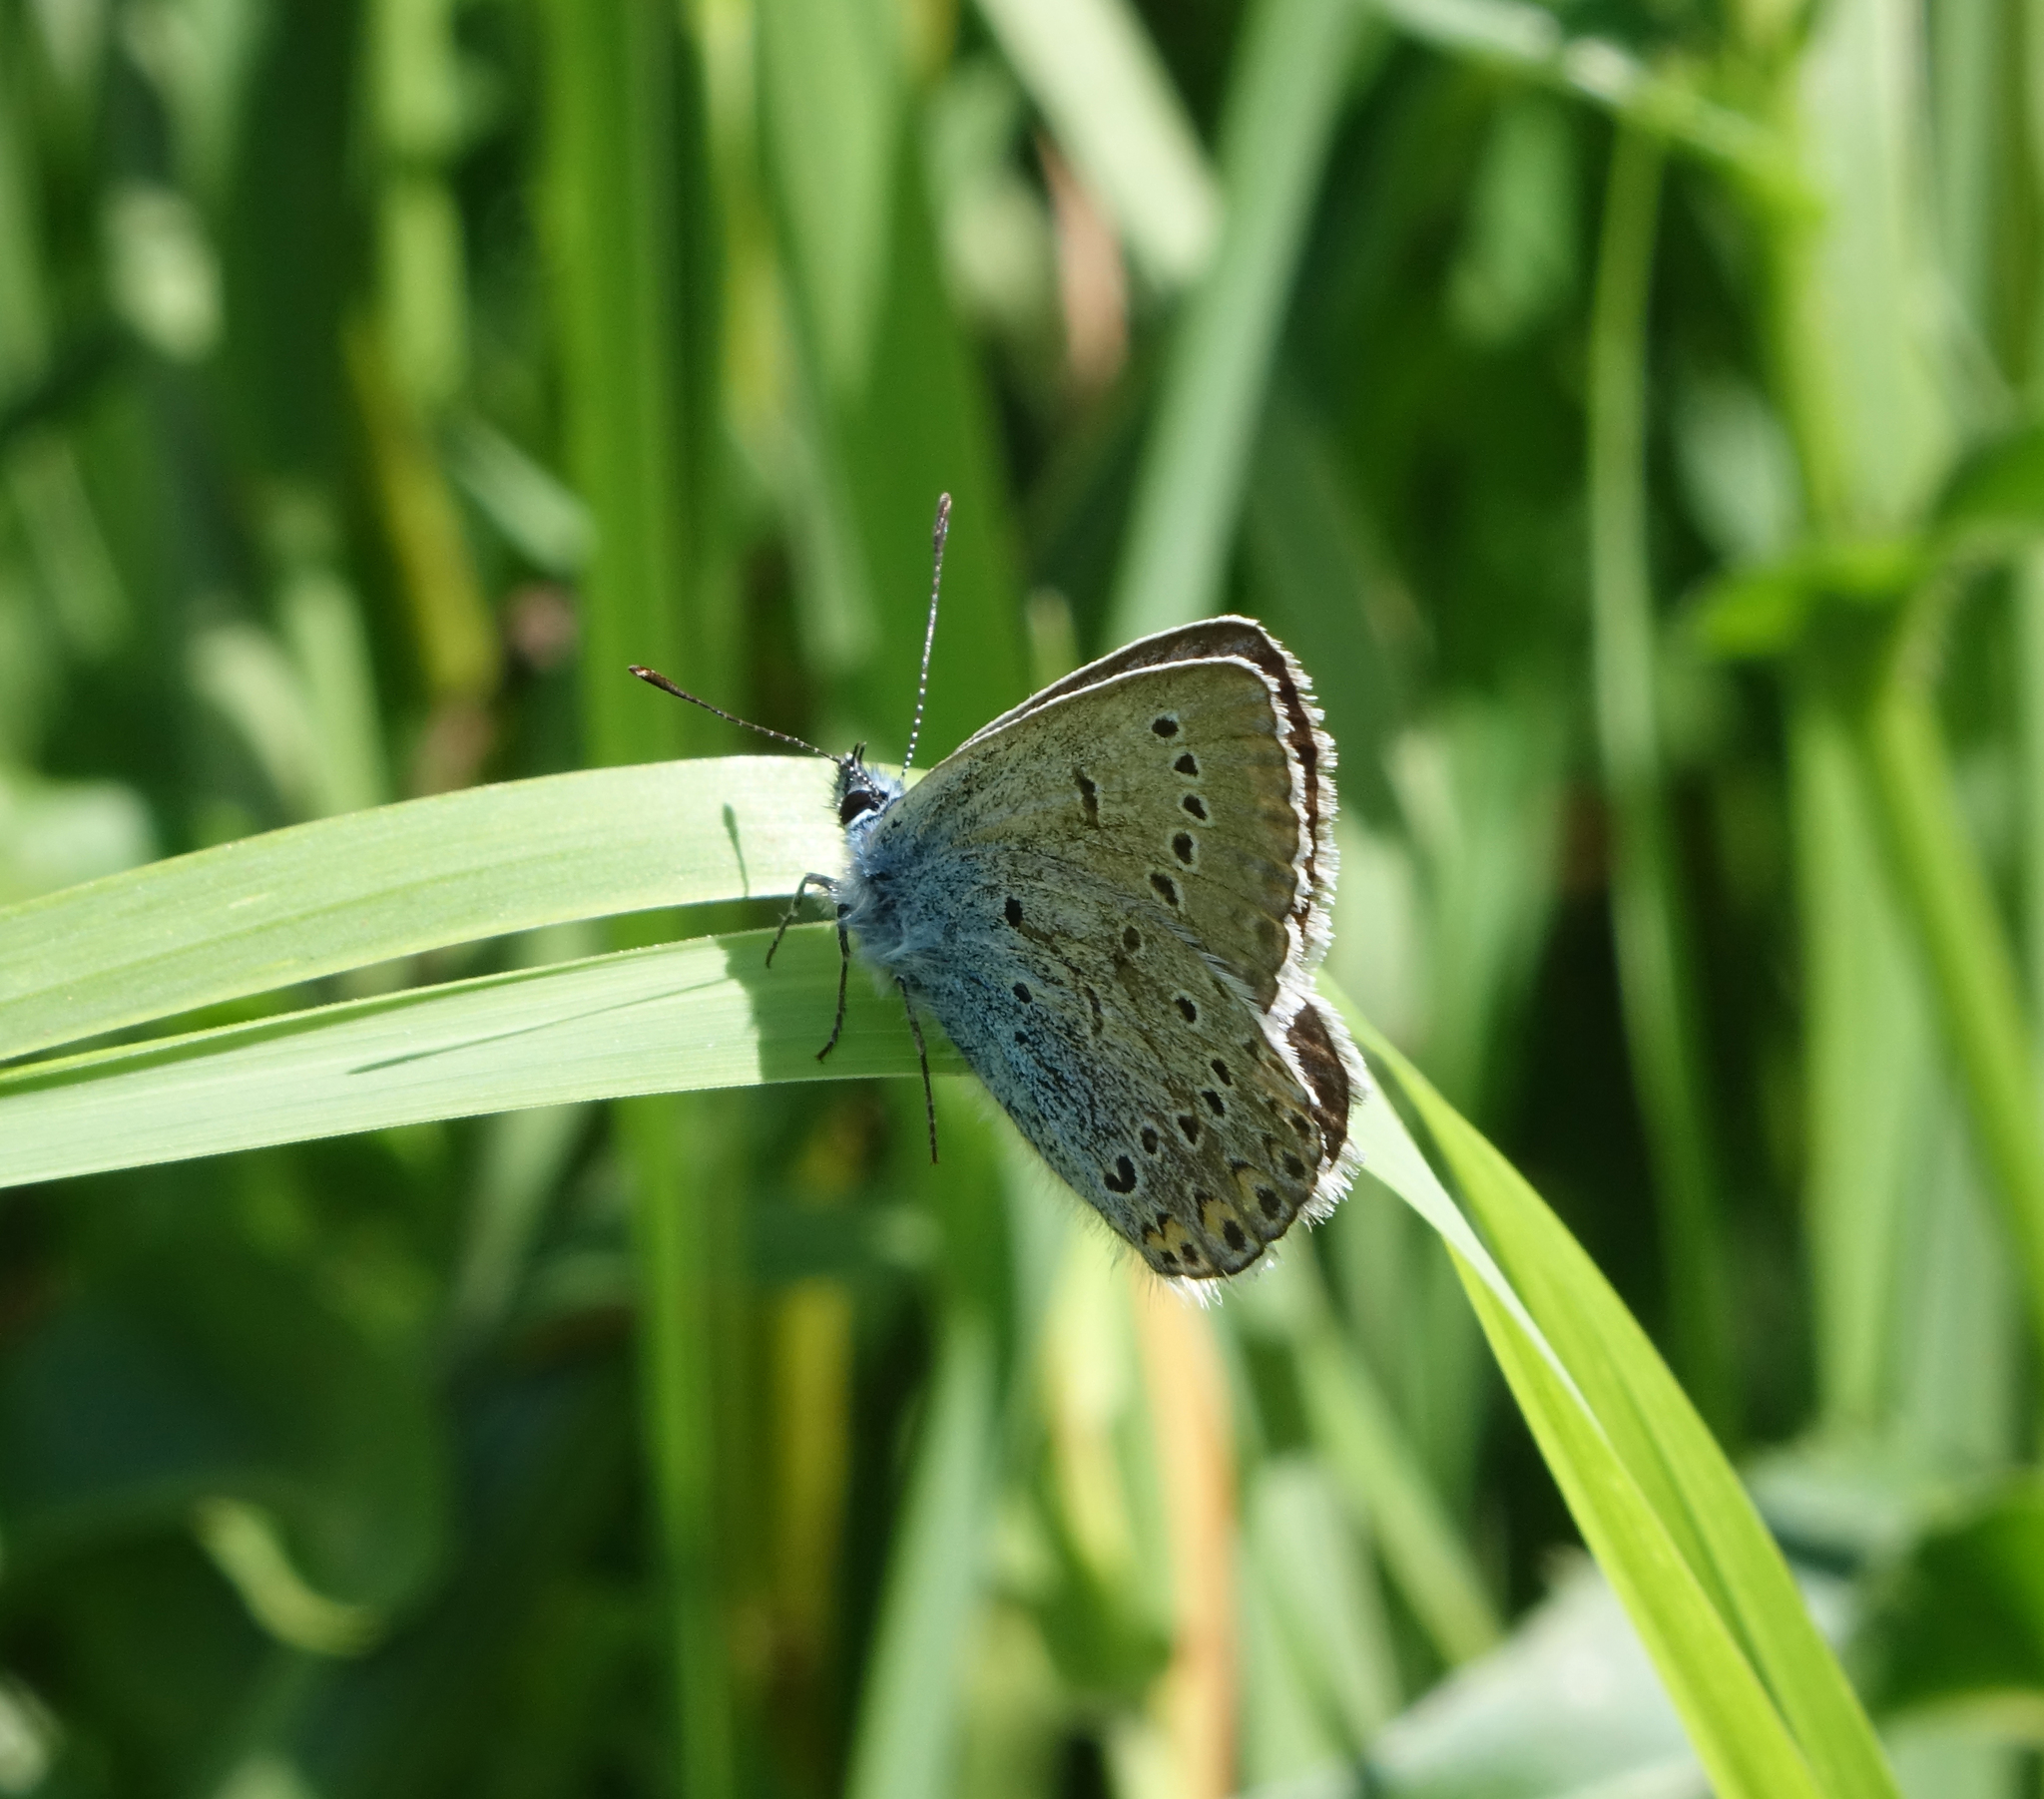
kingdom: Animalia
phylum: Arthropoda
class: Insecta
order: Lepidoptera
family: Lycaenidae
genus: Plebejus
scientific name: Plebejus amanda
